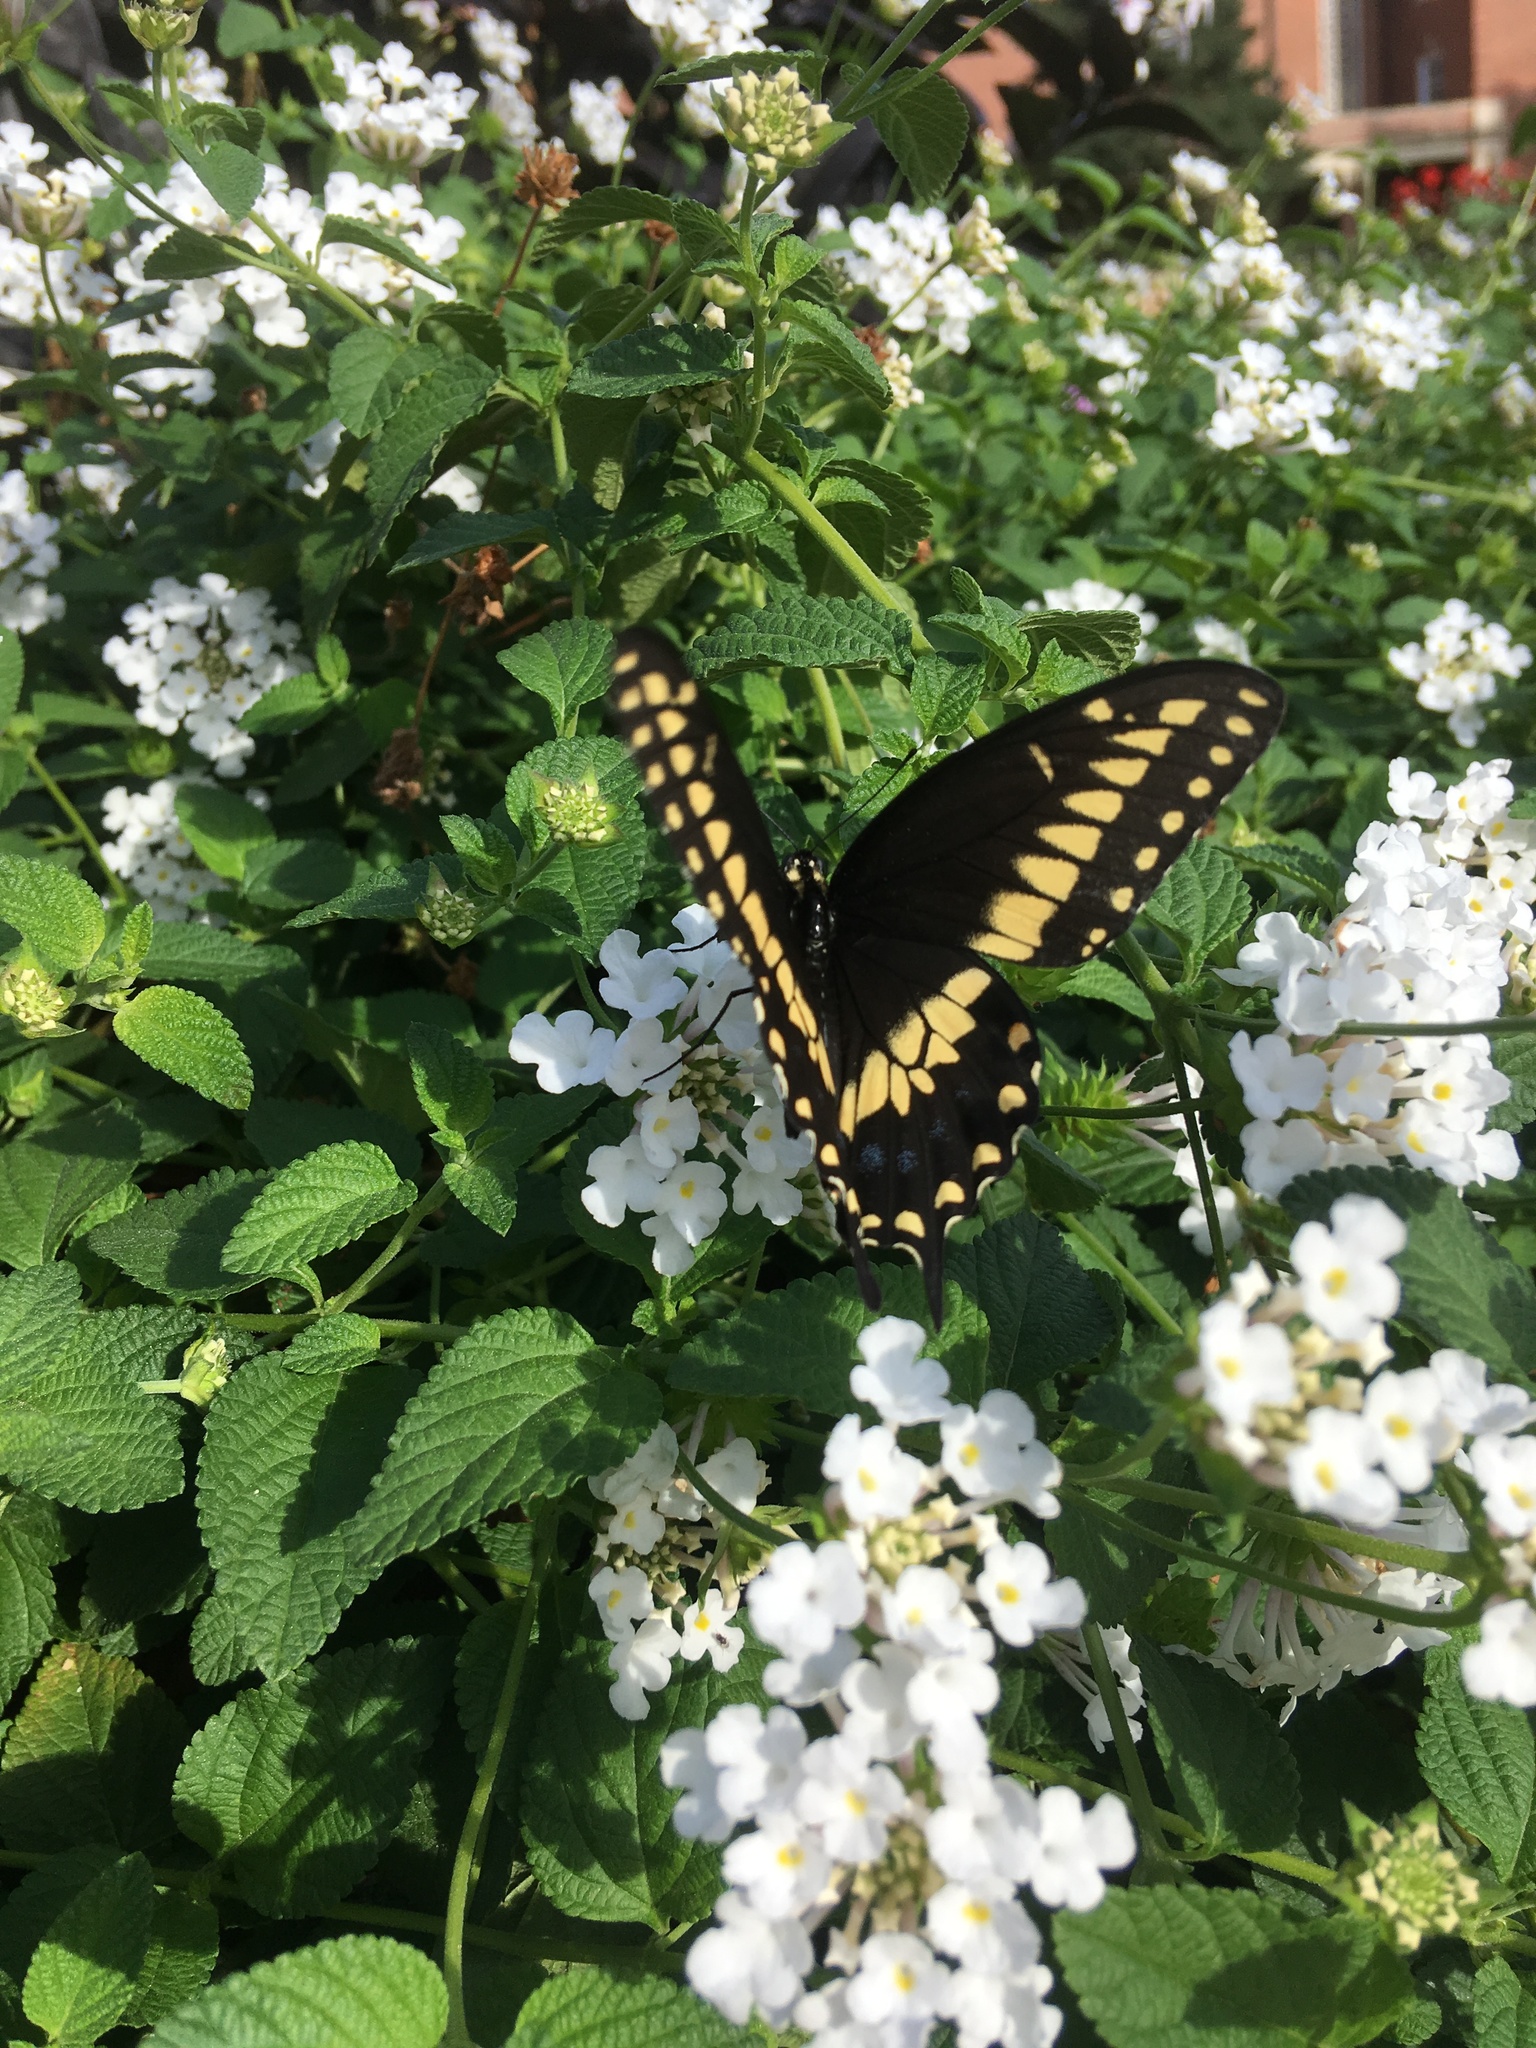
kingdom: Animalia
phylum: Arthropoda
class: Insecta
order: Lepidoptera
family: Papilionidae
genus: Papilio
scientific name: Papilio polyxenes
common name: Black swallowtail
